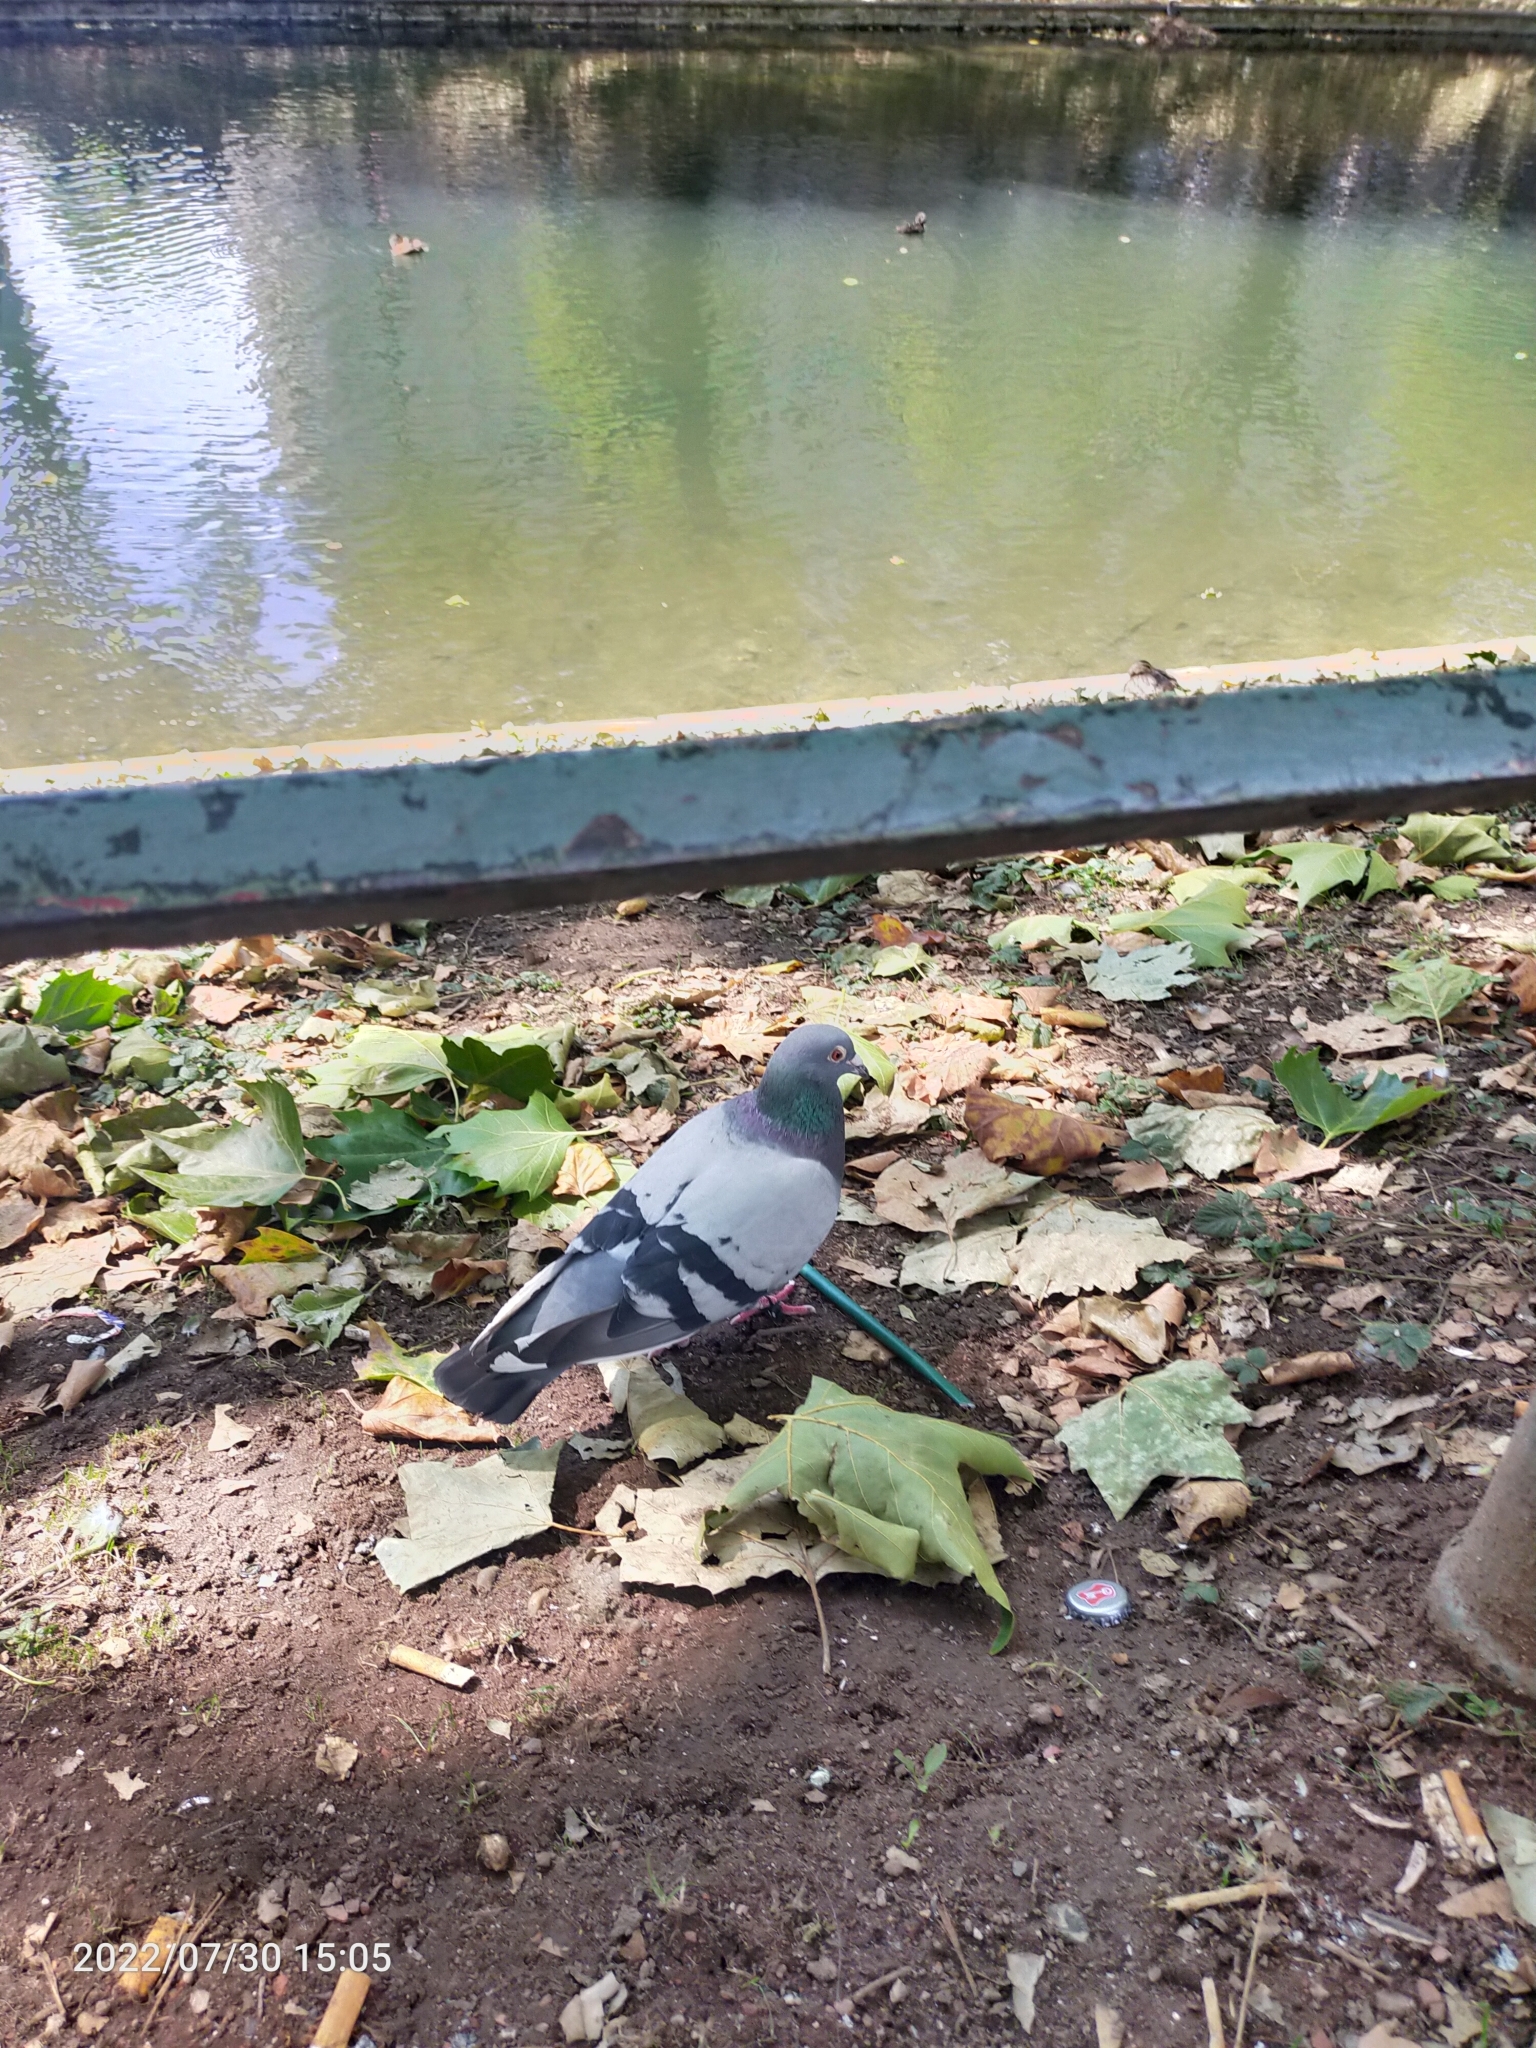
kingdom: Animalia
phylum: Chordata
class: Aves
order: Columbiformes
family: Columbidae
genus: Columba
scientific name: Columba livia
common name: Rock pigeon
